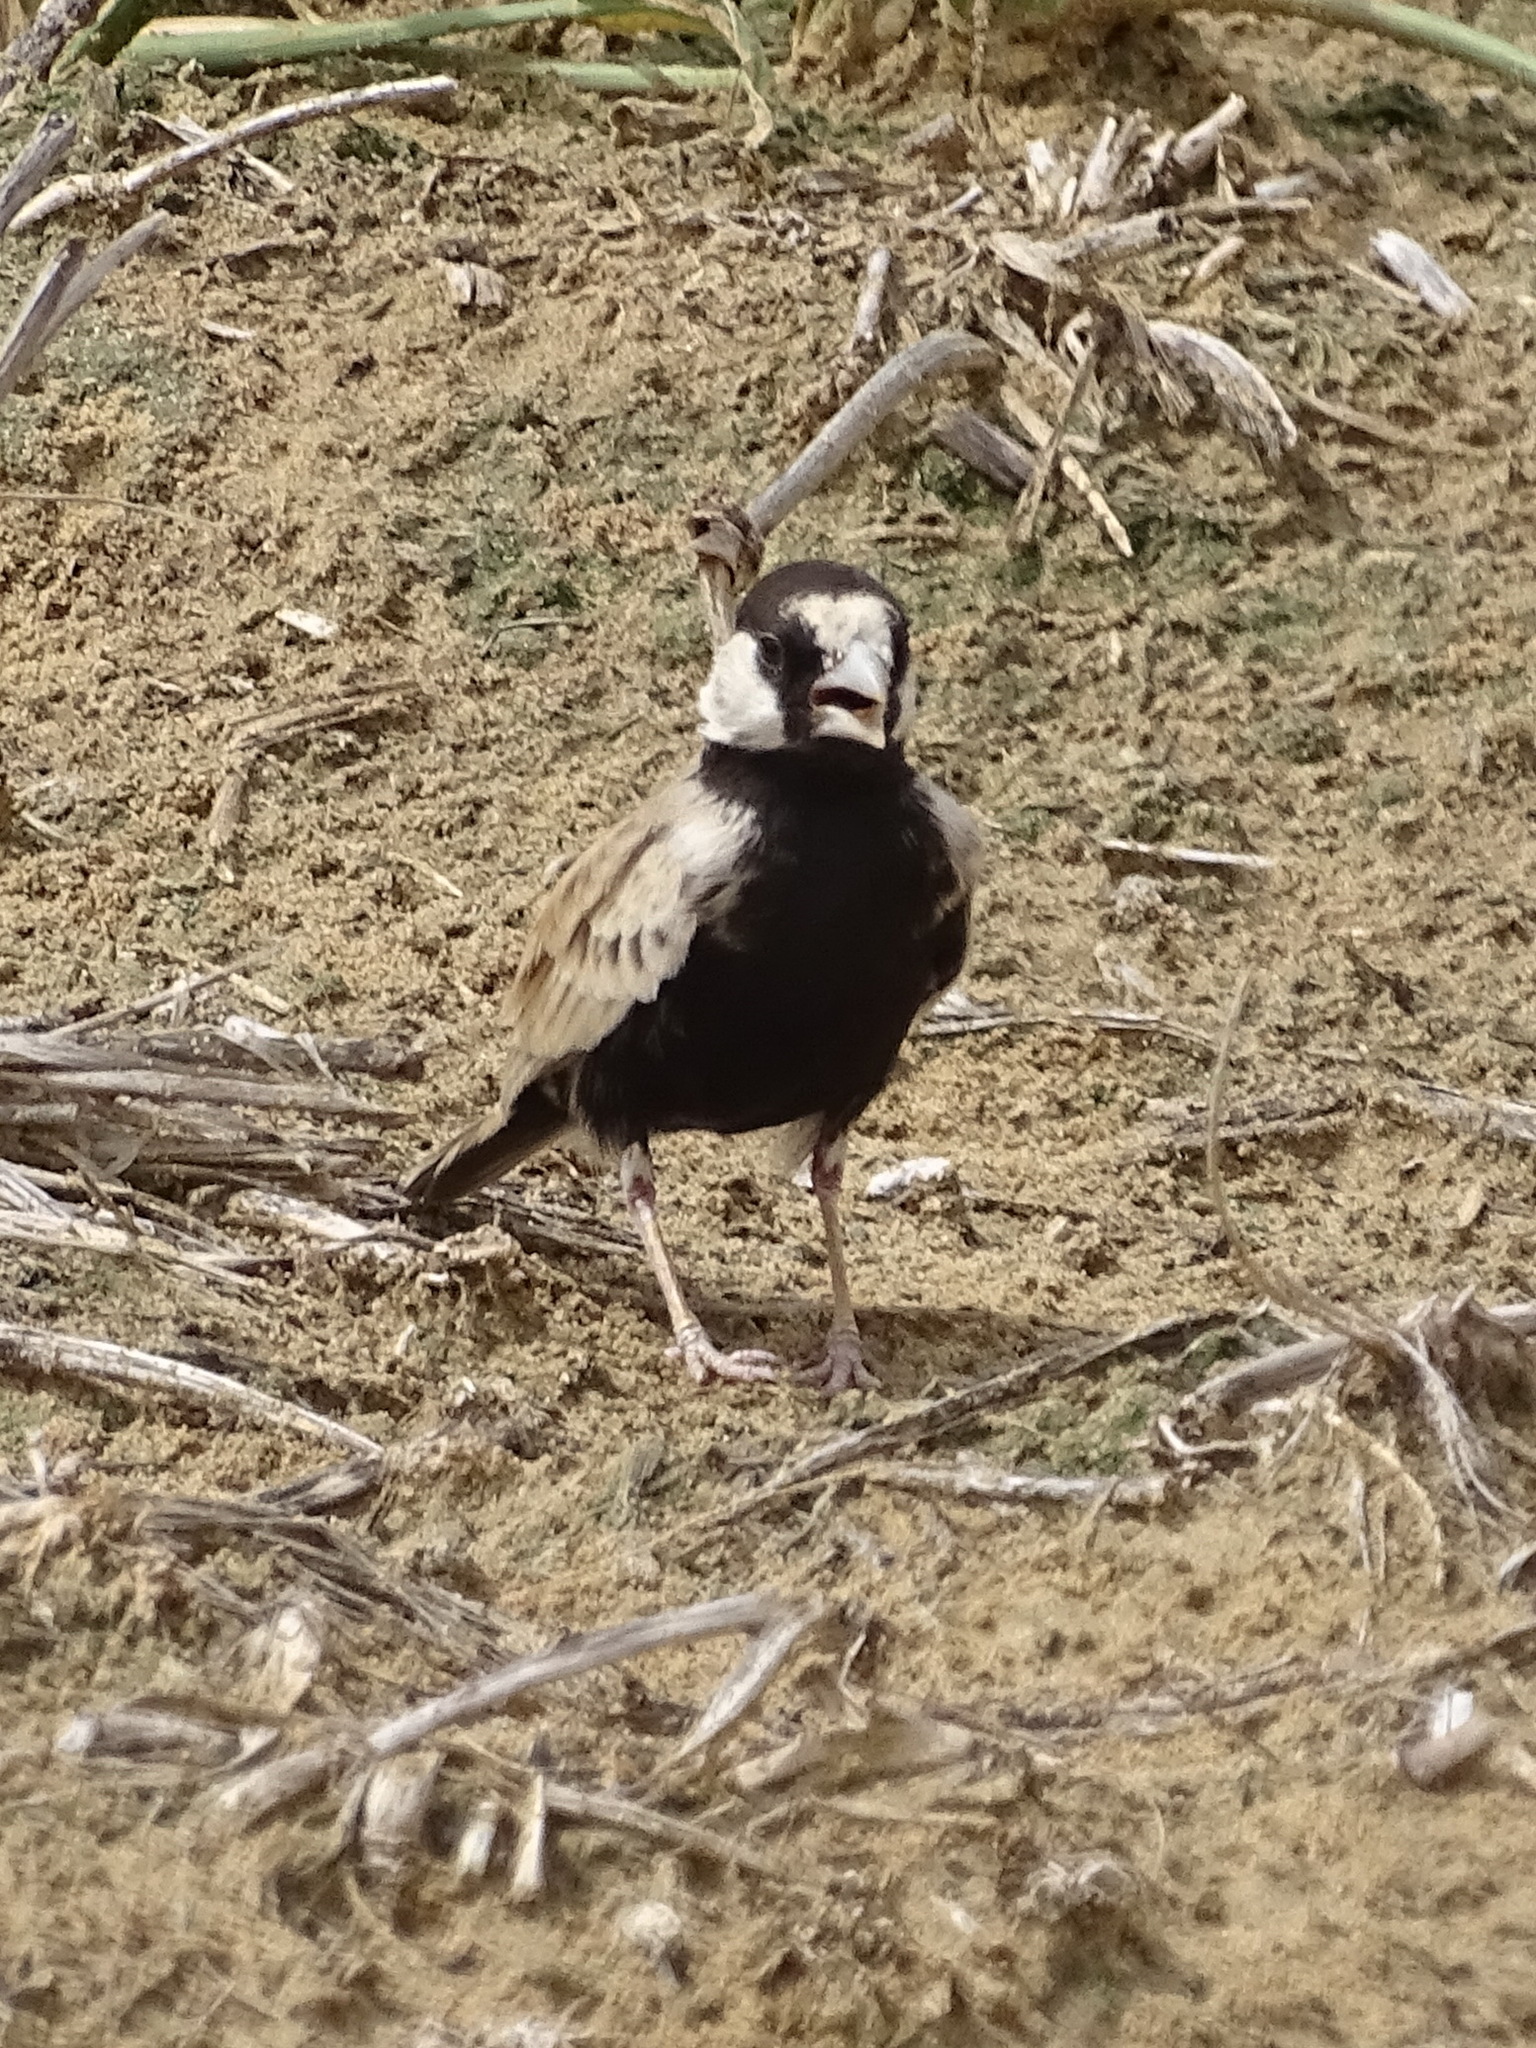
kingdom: Animalia
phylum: Chordata
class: Aves
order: Passeriformes
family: Alaudidae
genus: Eremopterix
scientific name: Eremopterix nigriceps
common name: Black-crowned sparrow-lark
